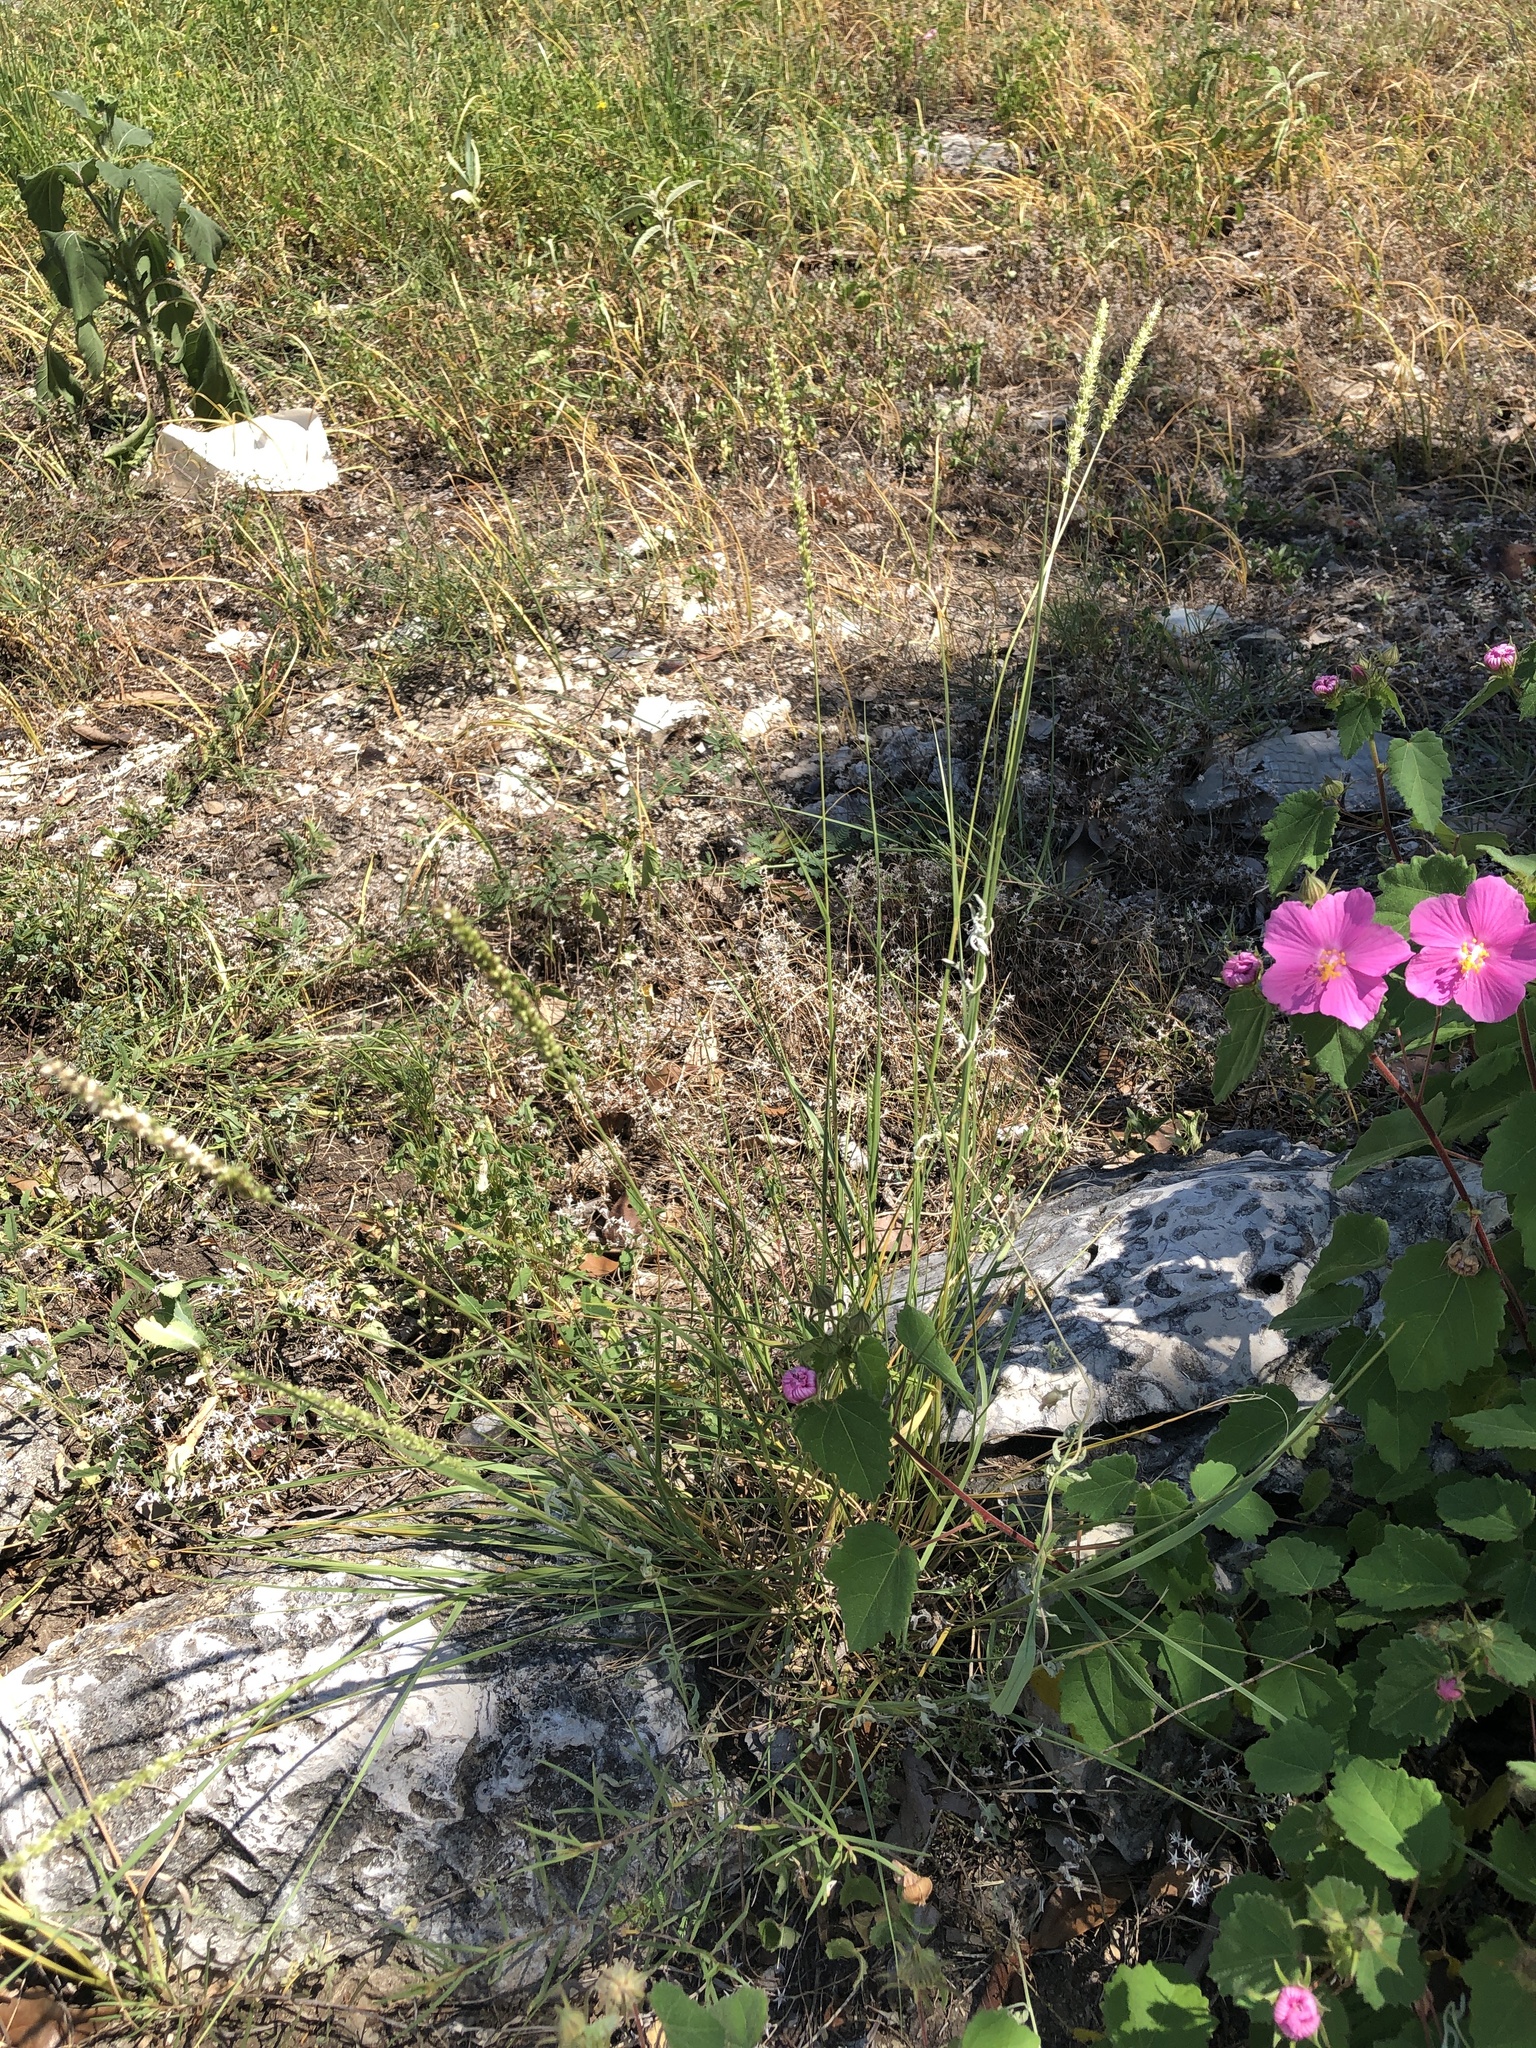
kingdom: Plantae
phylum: Tracheophyta
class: Liliopsida
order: Poales
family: Poaceae
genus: Setaria
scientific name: Setaria leucopila
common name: Plains bristle grass
